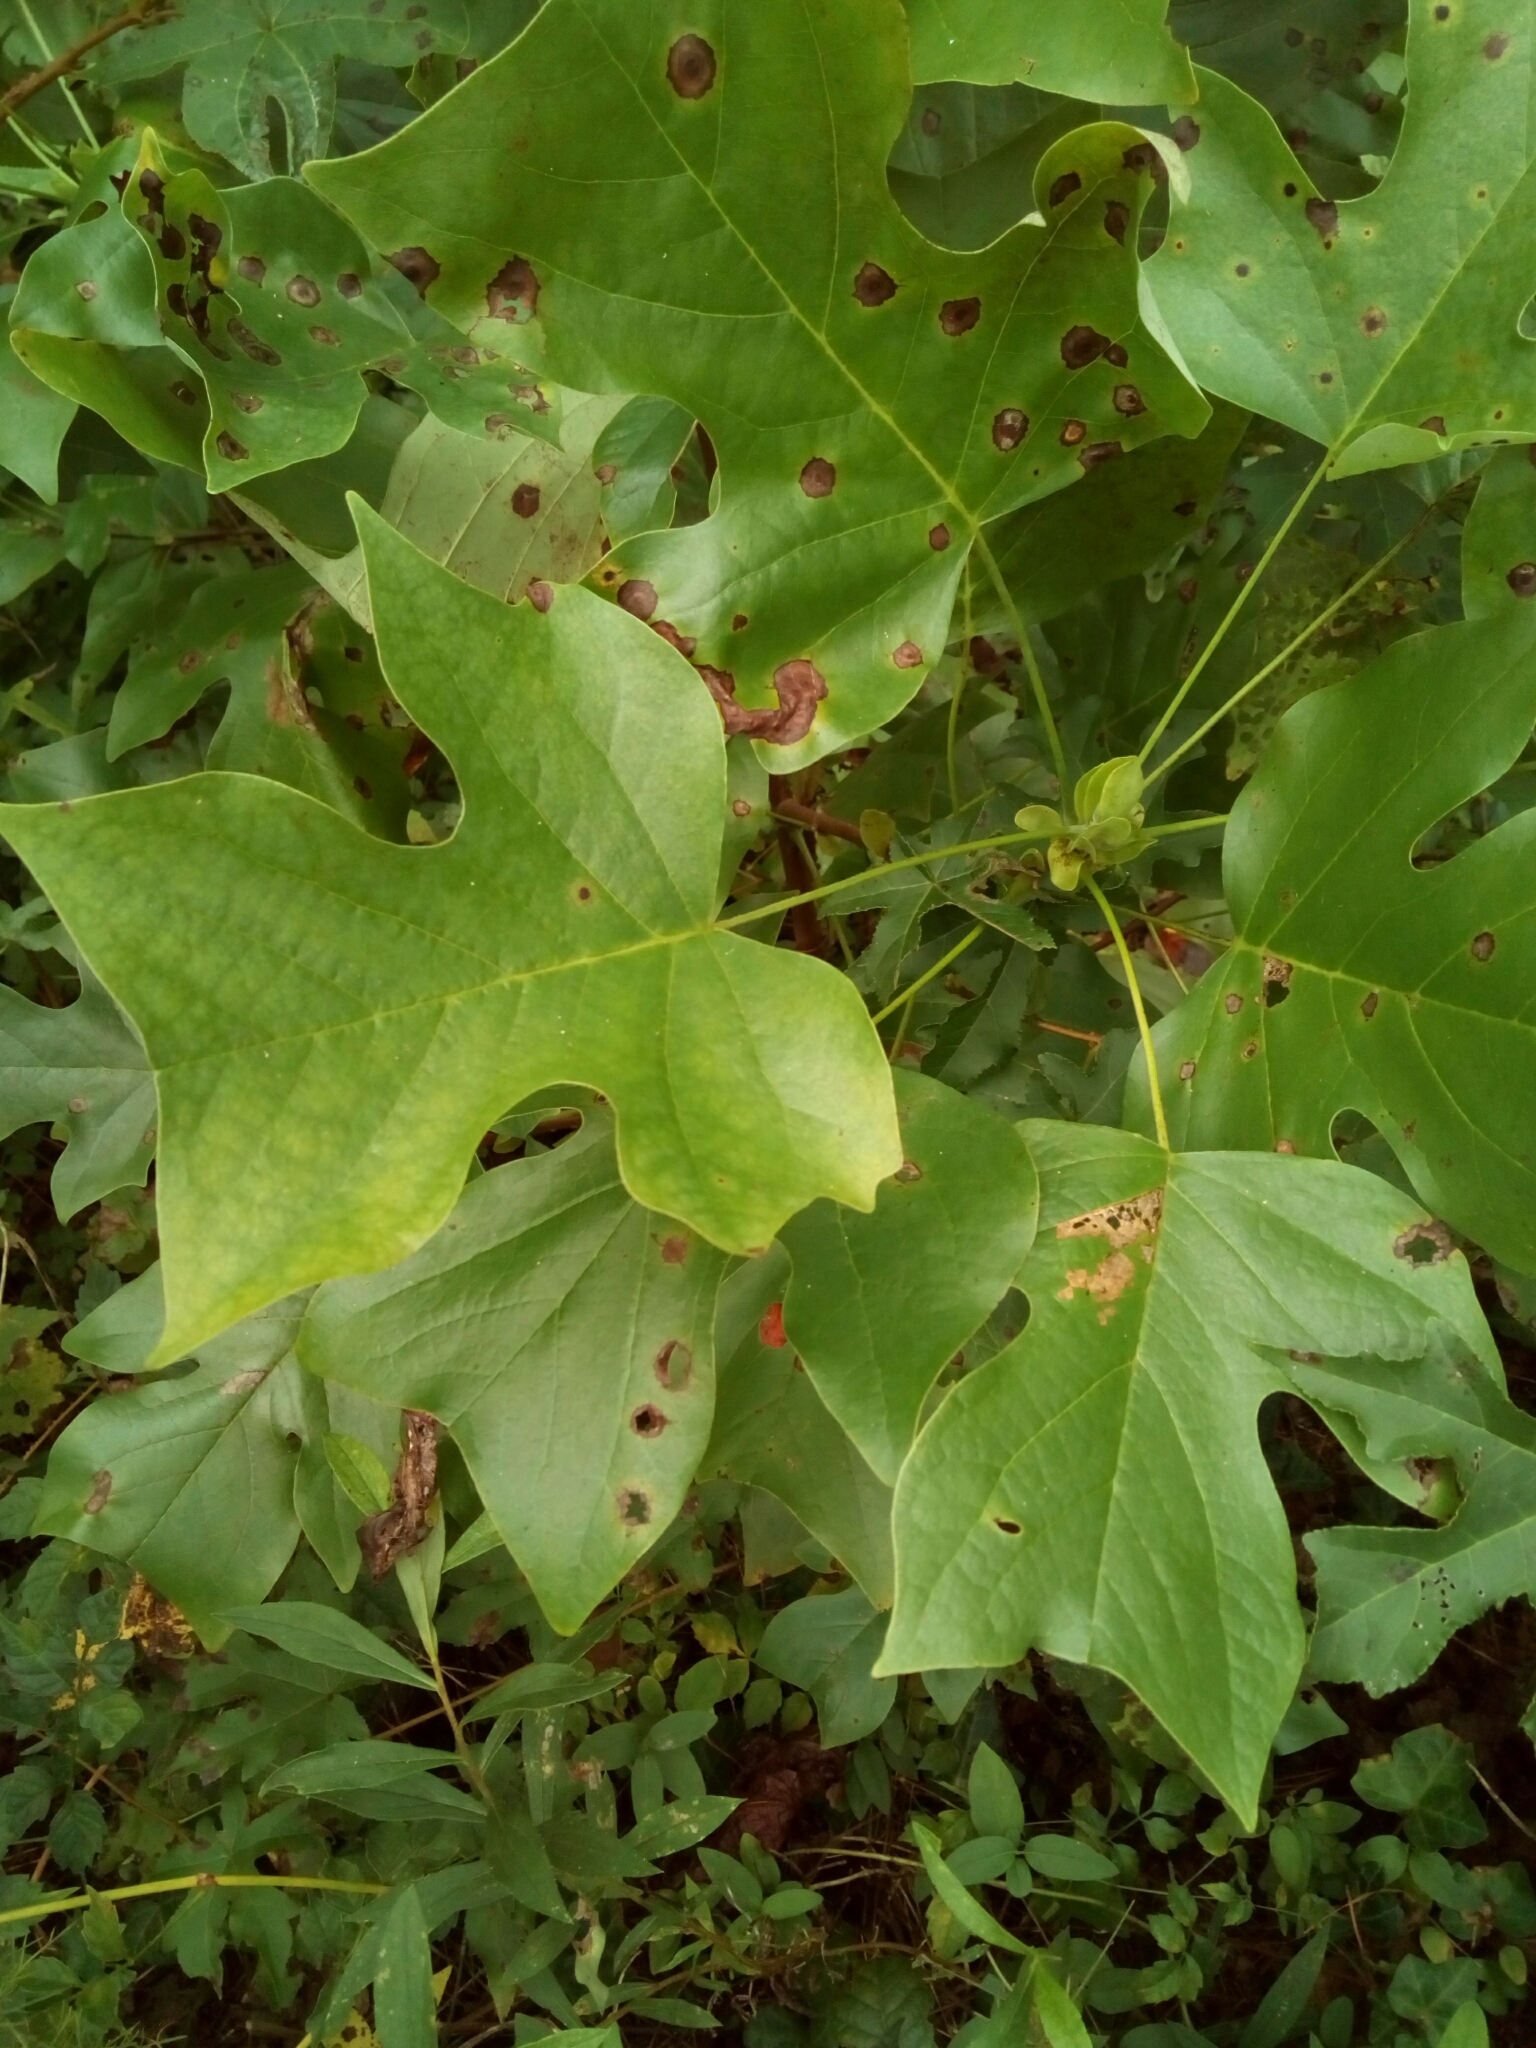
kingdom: Plantae
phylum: Tracheophyta
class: Magnoliopsida
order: Magnoliales
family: Magnoliaceae
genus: Liriodendron
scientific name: Liriodendron tulipifera
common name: Tulip tree
